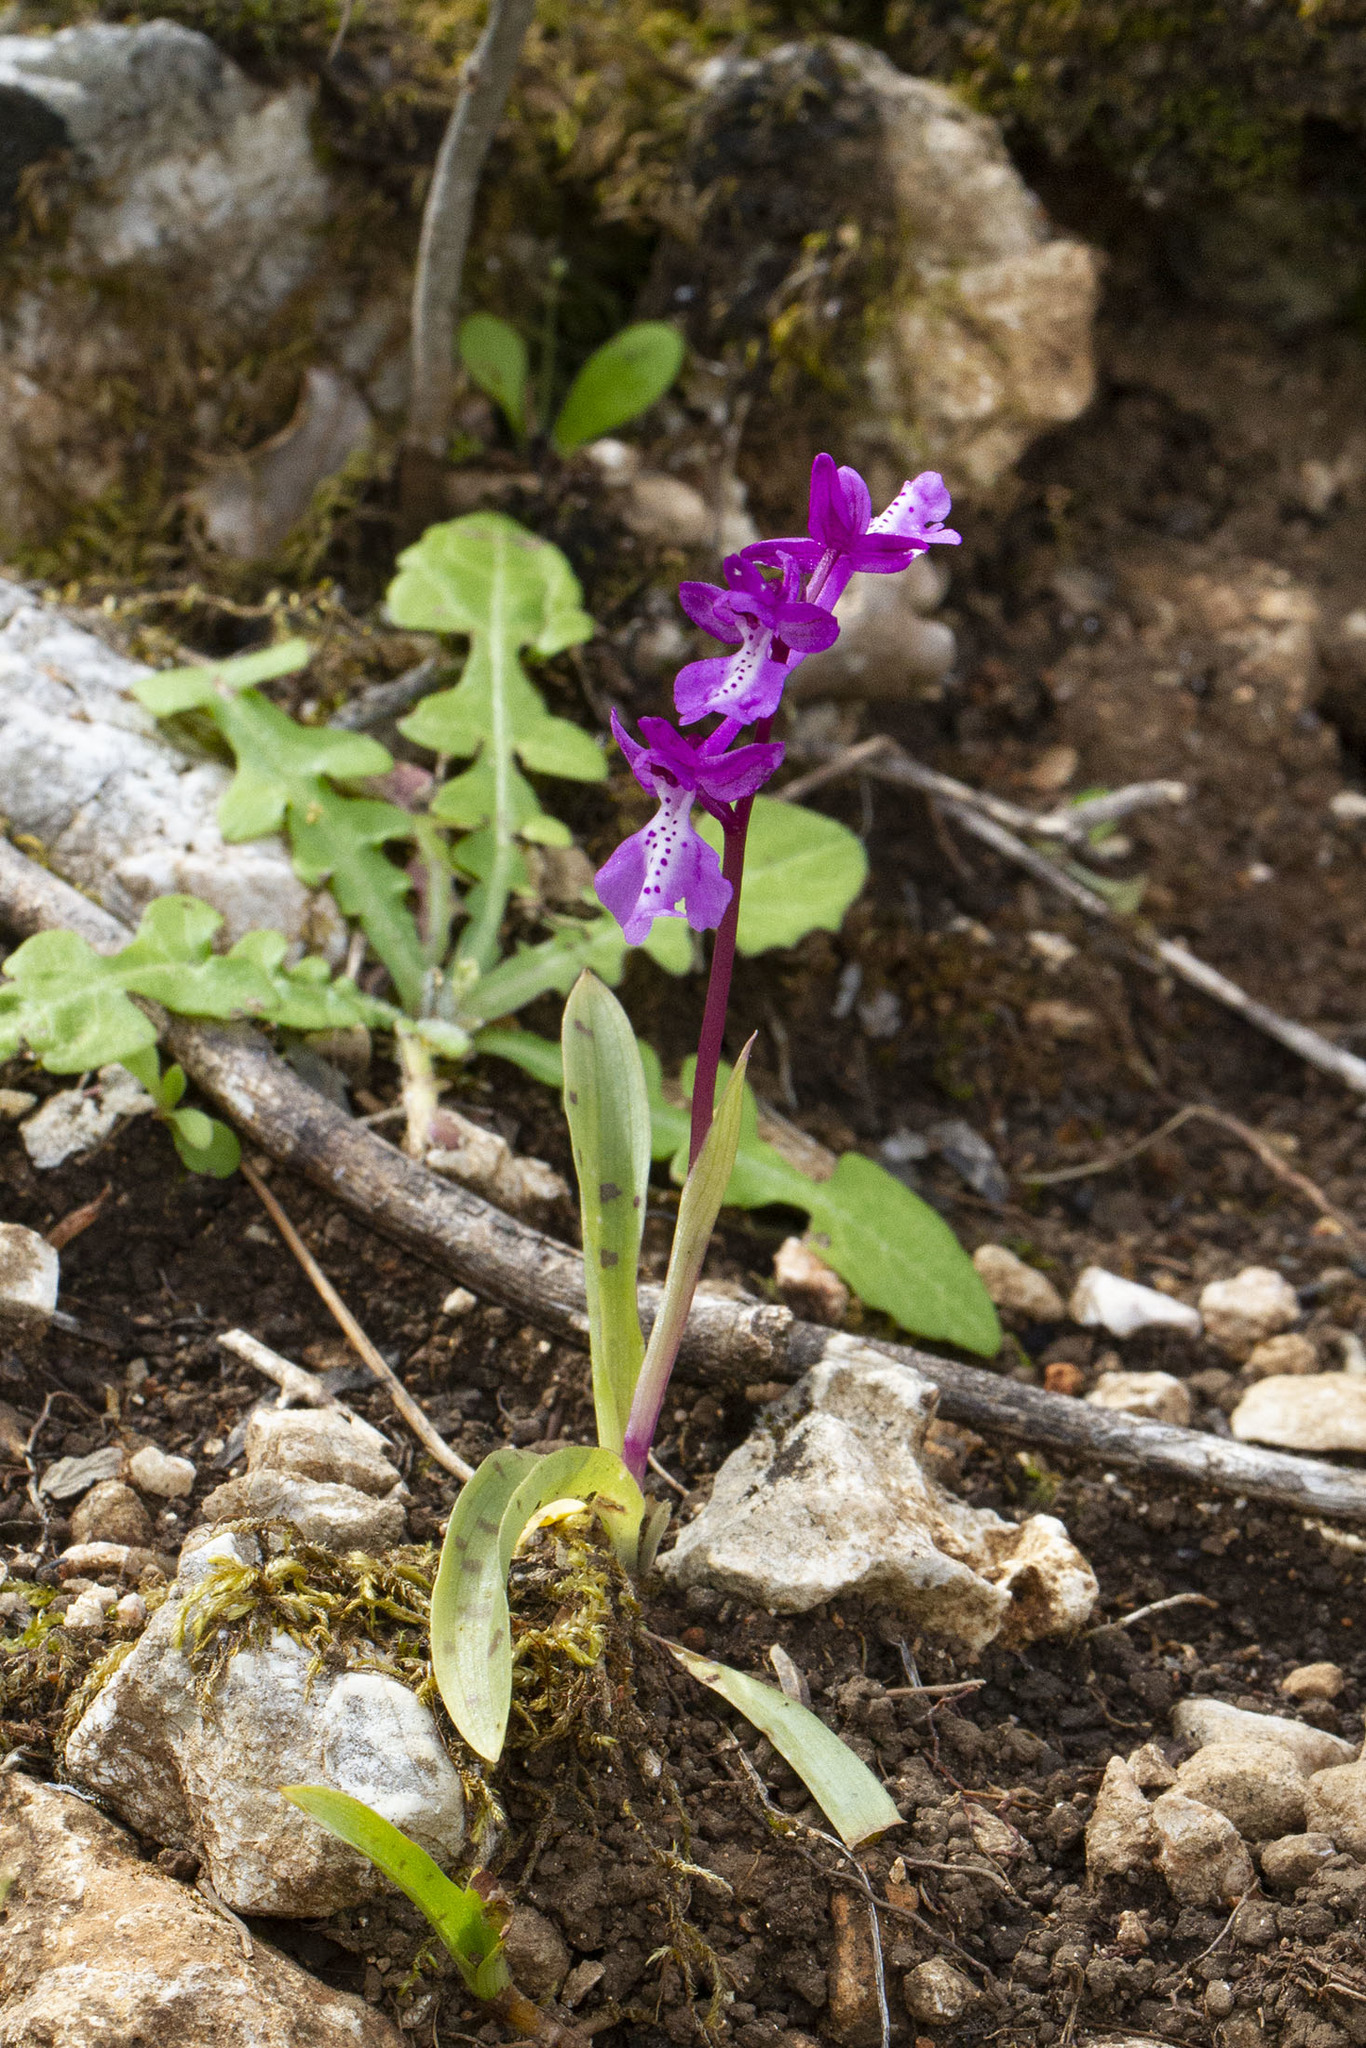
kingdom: Plantae
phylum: Tracheophyta
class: Liliopsida
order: Asparagales
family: Orchidaceae
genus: Orchis
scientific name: Orchis anatolica
